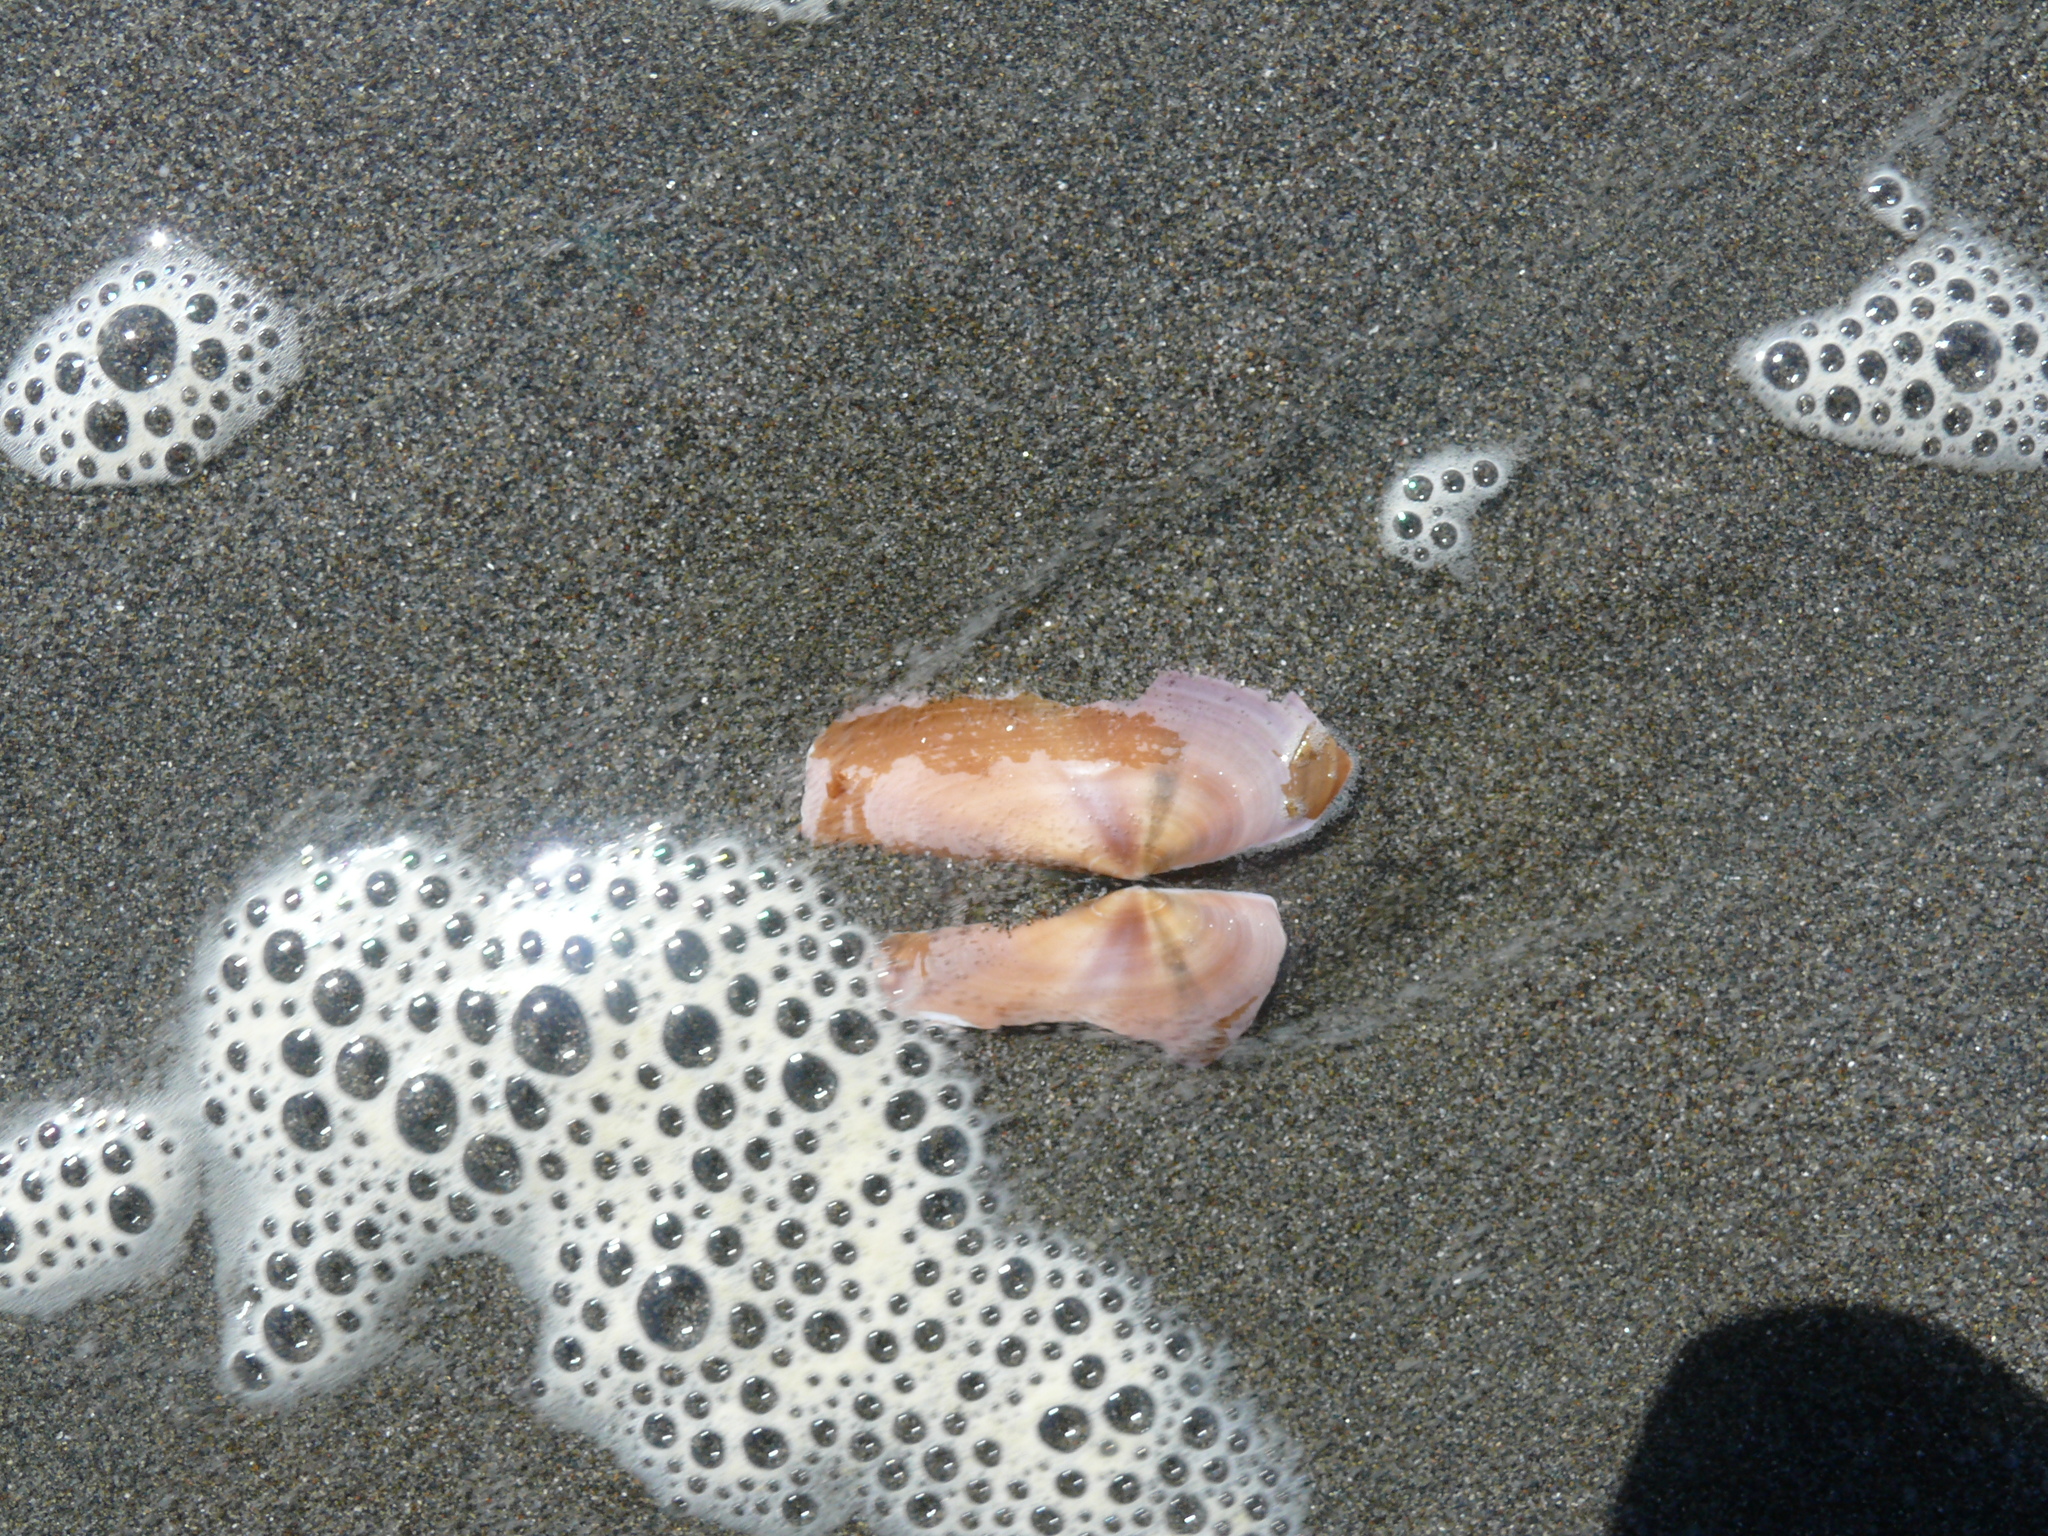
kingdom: Animalia
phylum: Mollusca
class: Bivalvia
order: Adapedonta
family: Pharidae
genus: Siliqua
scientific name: Siliqua patula
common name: Pacific razor clam
